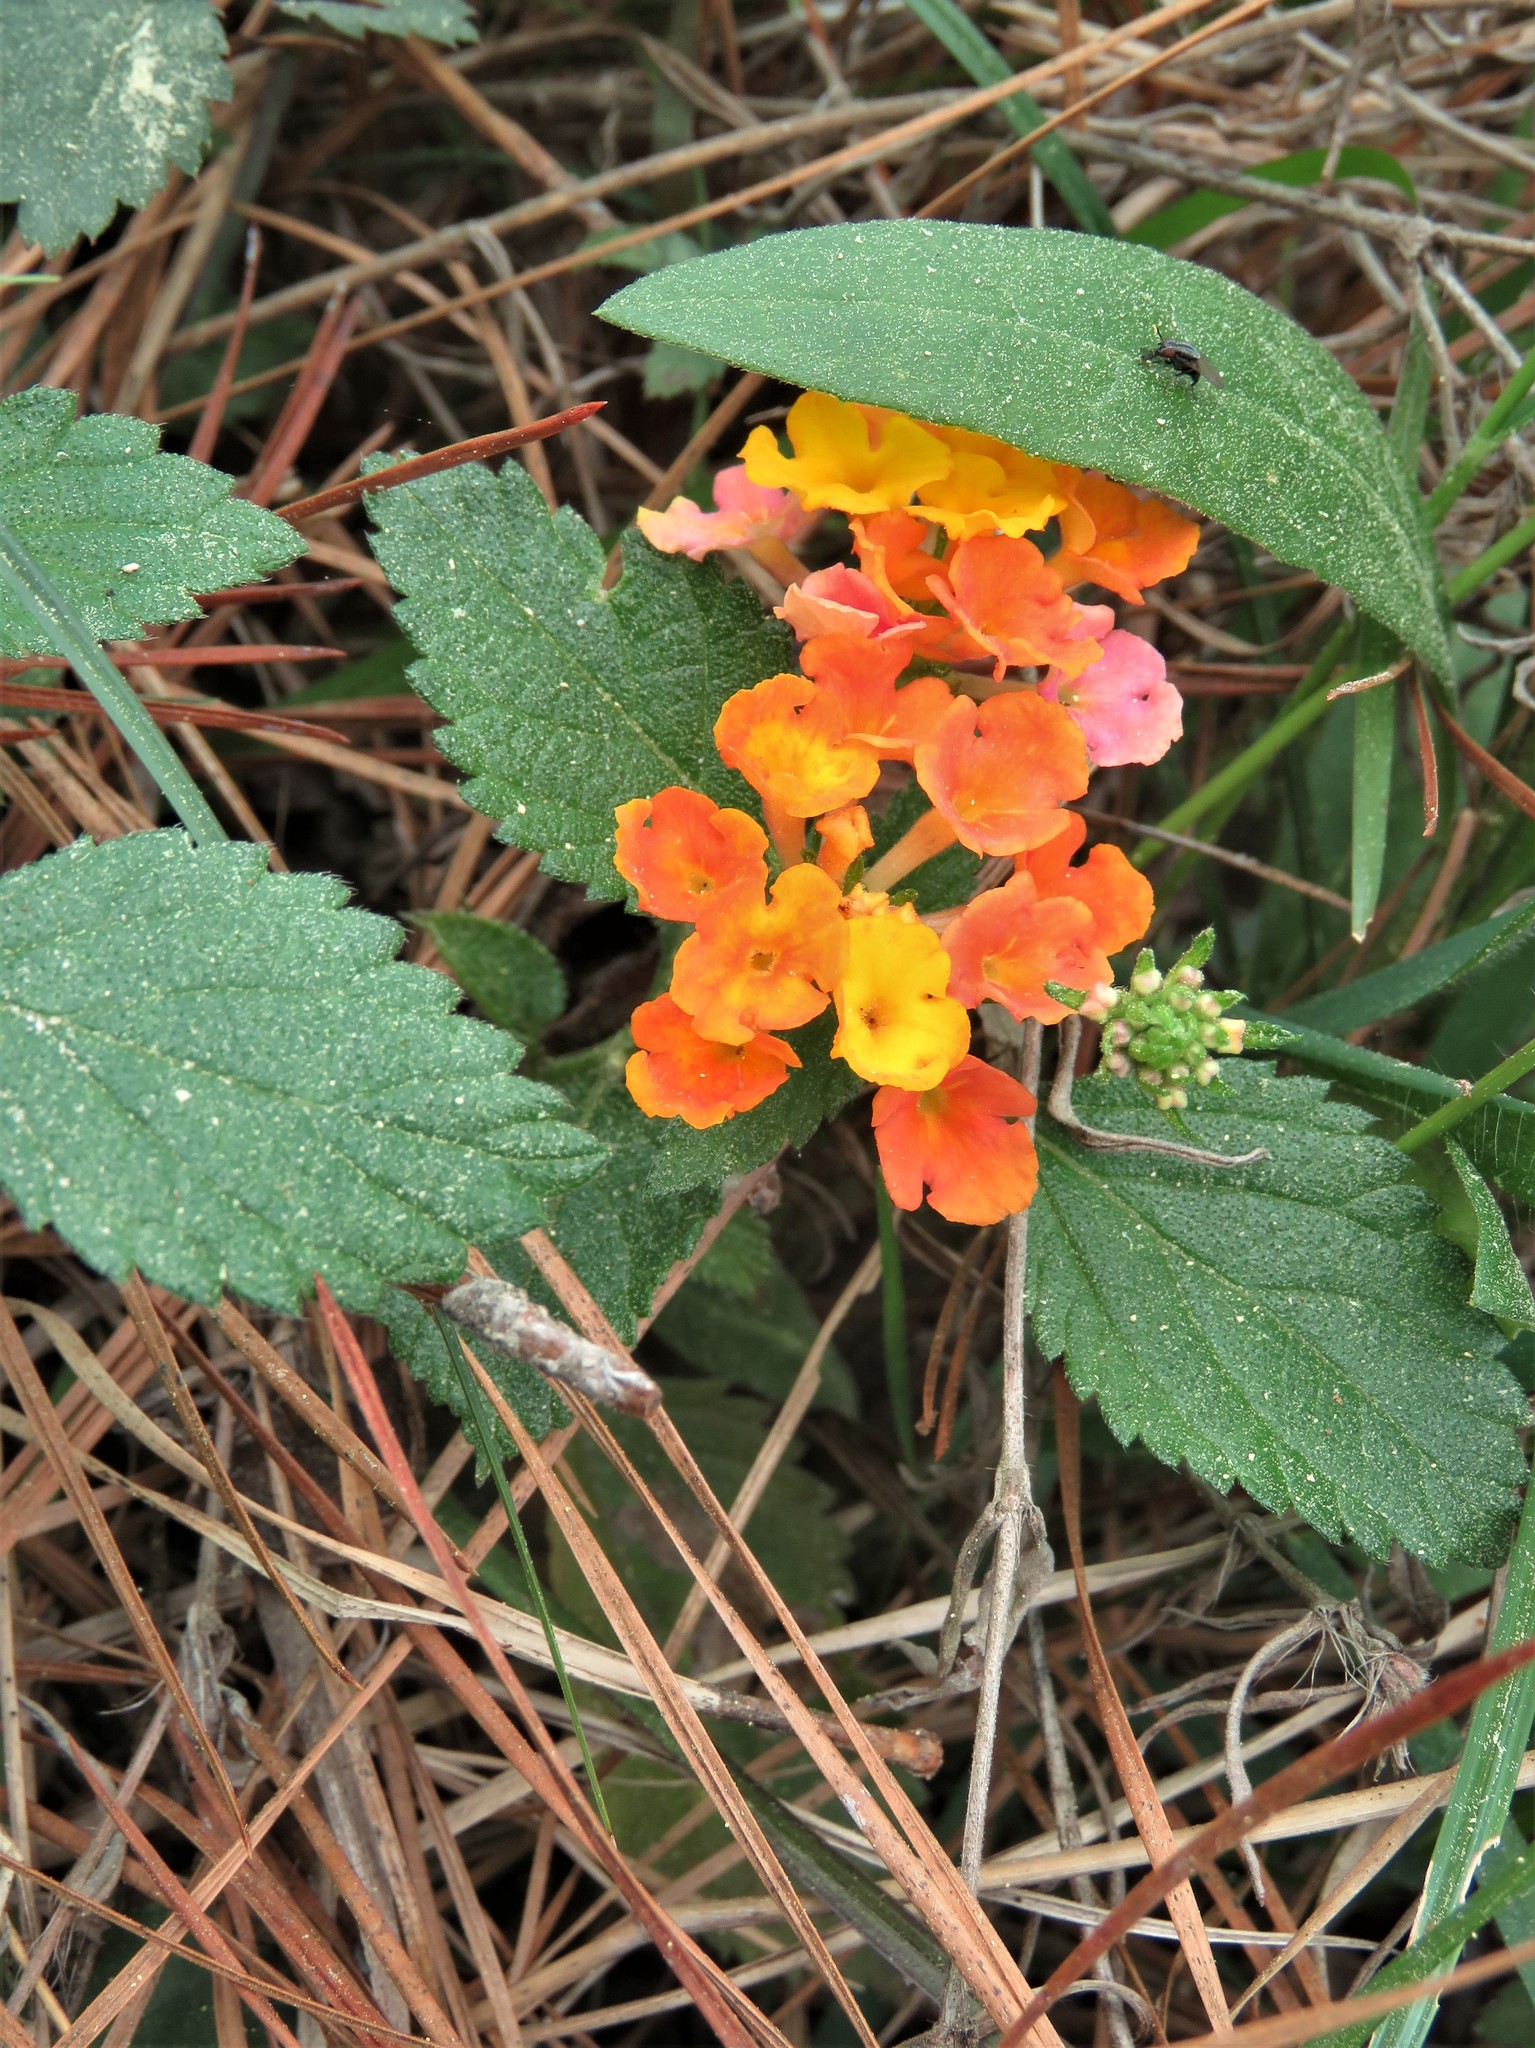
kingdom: Plantae
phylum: Tracheophyta
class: Magnoliopsida
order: Lamiales
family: Verbenaceae
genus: Lantana
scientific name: Lantana camara
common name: Lantana
